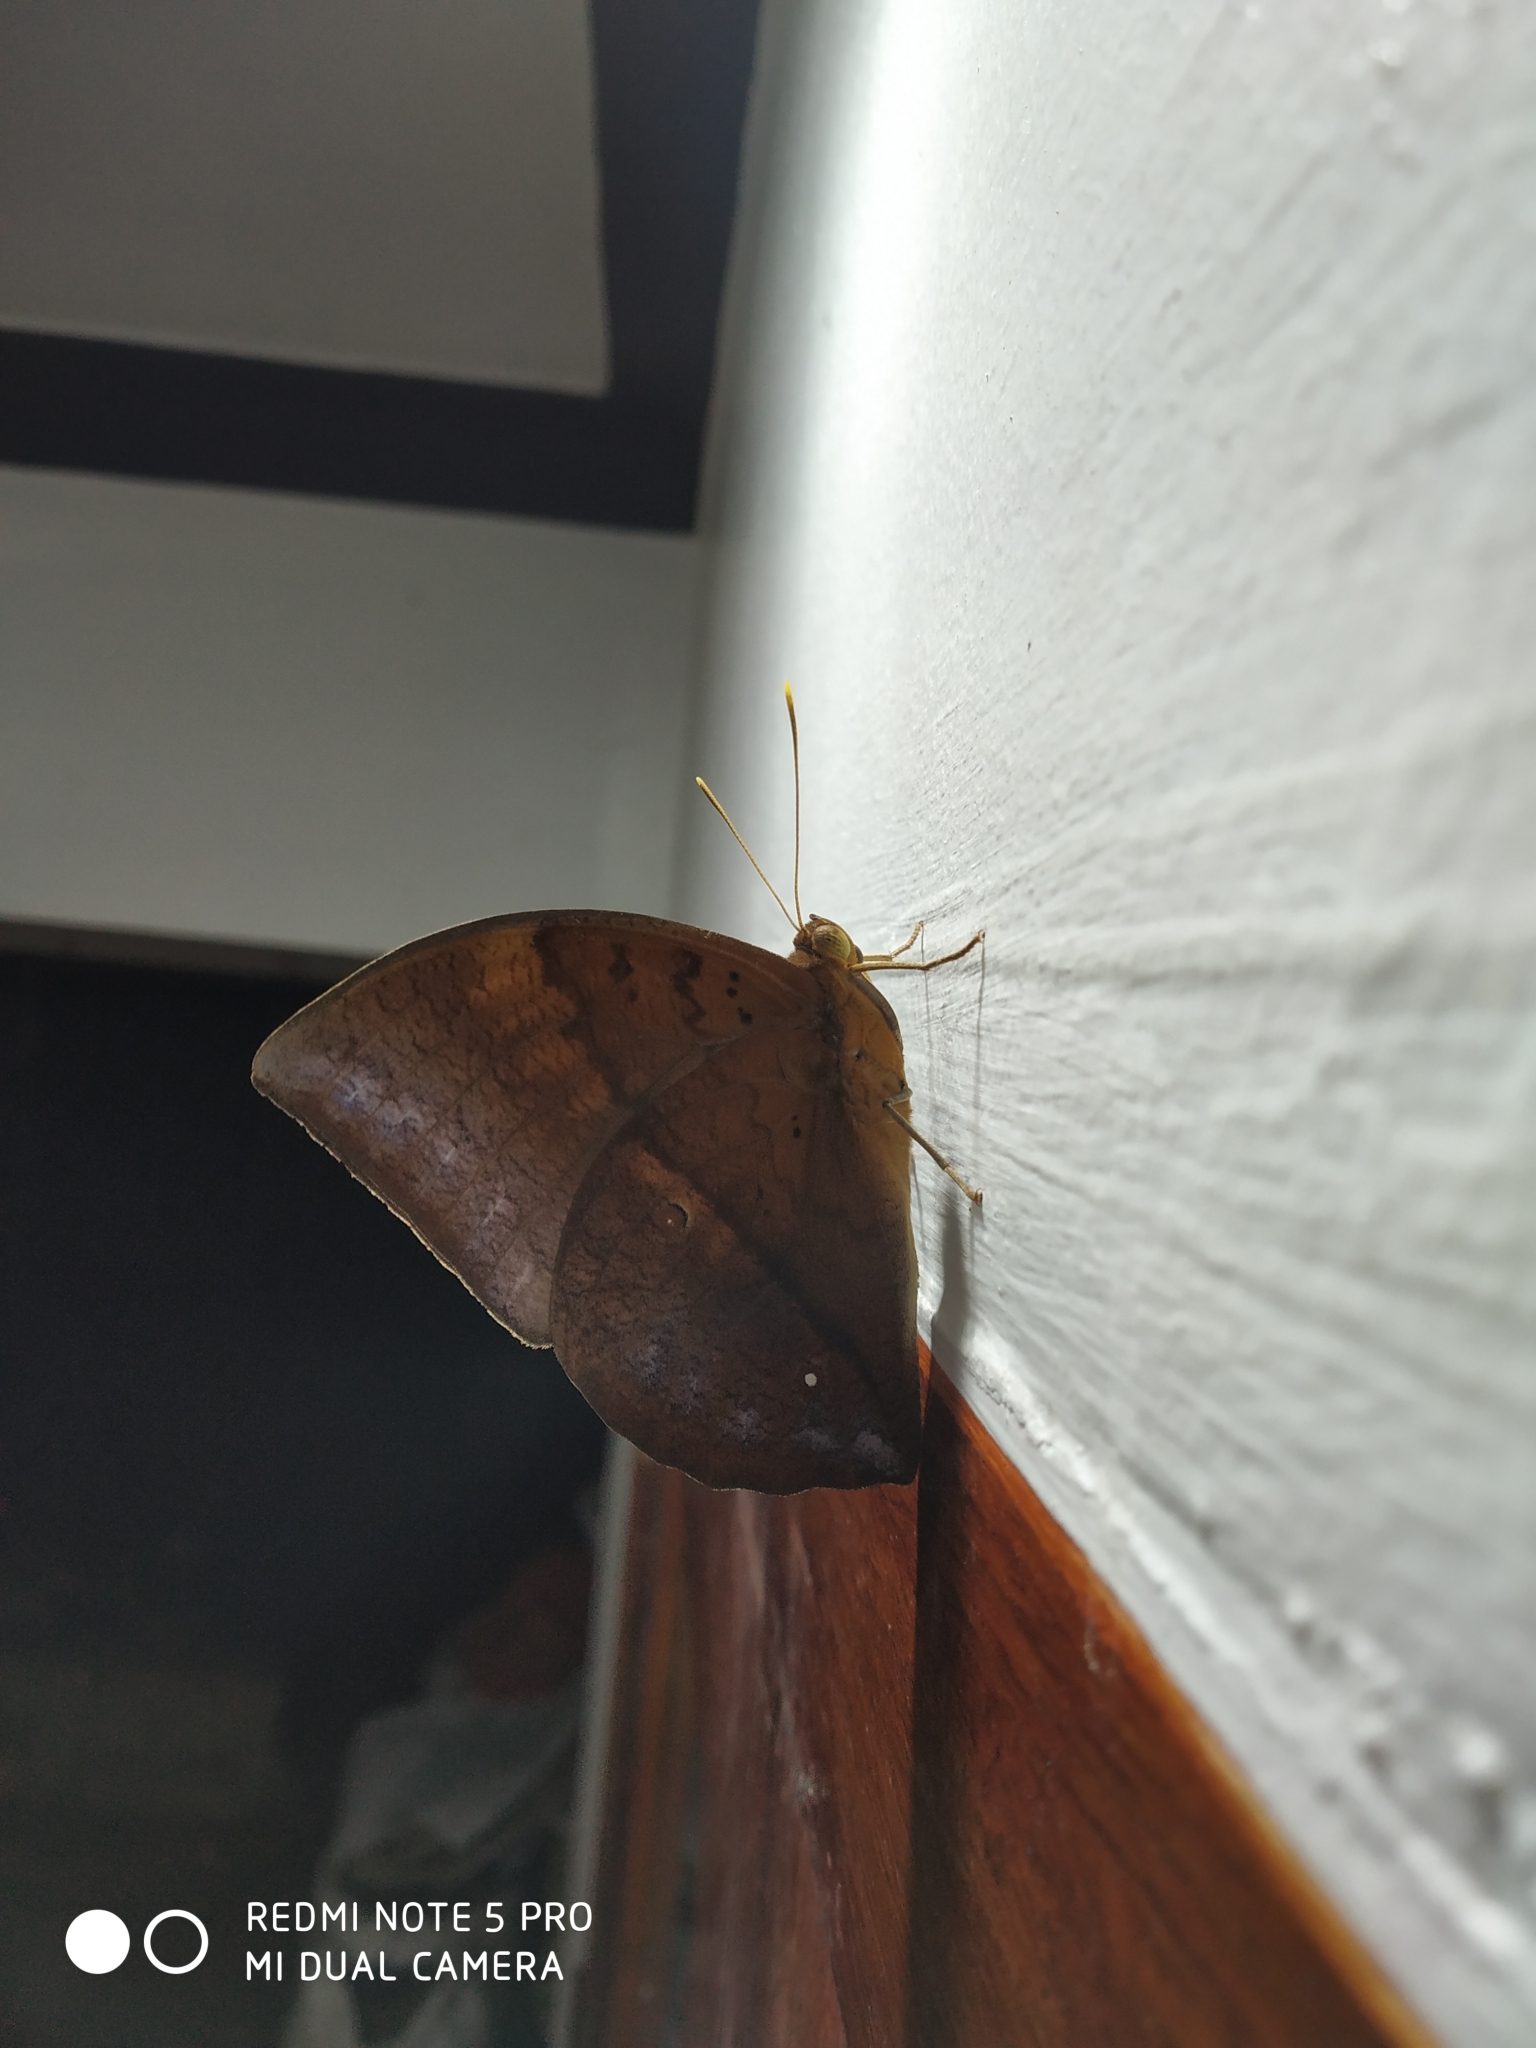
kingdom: Animalia
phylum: Arthropoda
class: Insecta
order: Lepidoptera
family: Nymphalidae
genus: Discophora
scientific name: Discophora lepida
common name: Southern duffer
